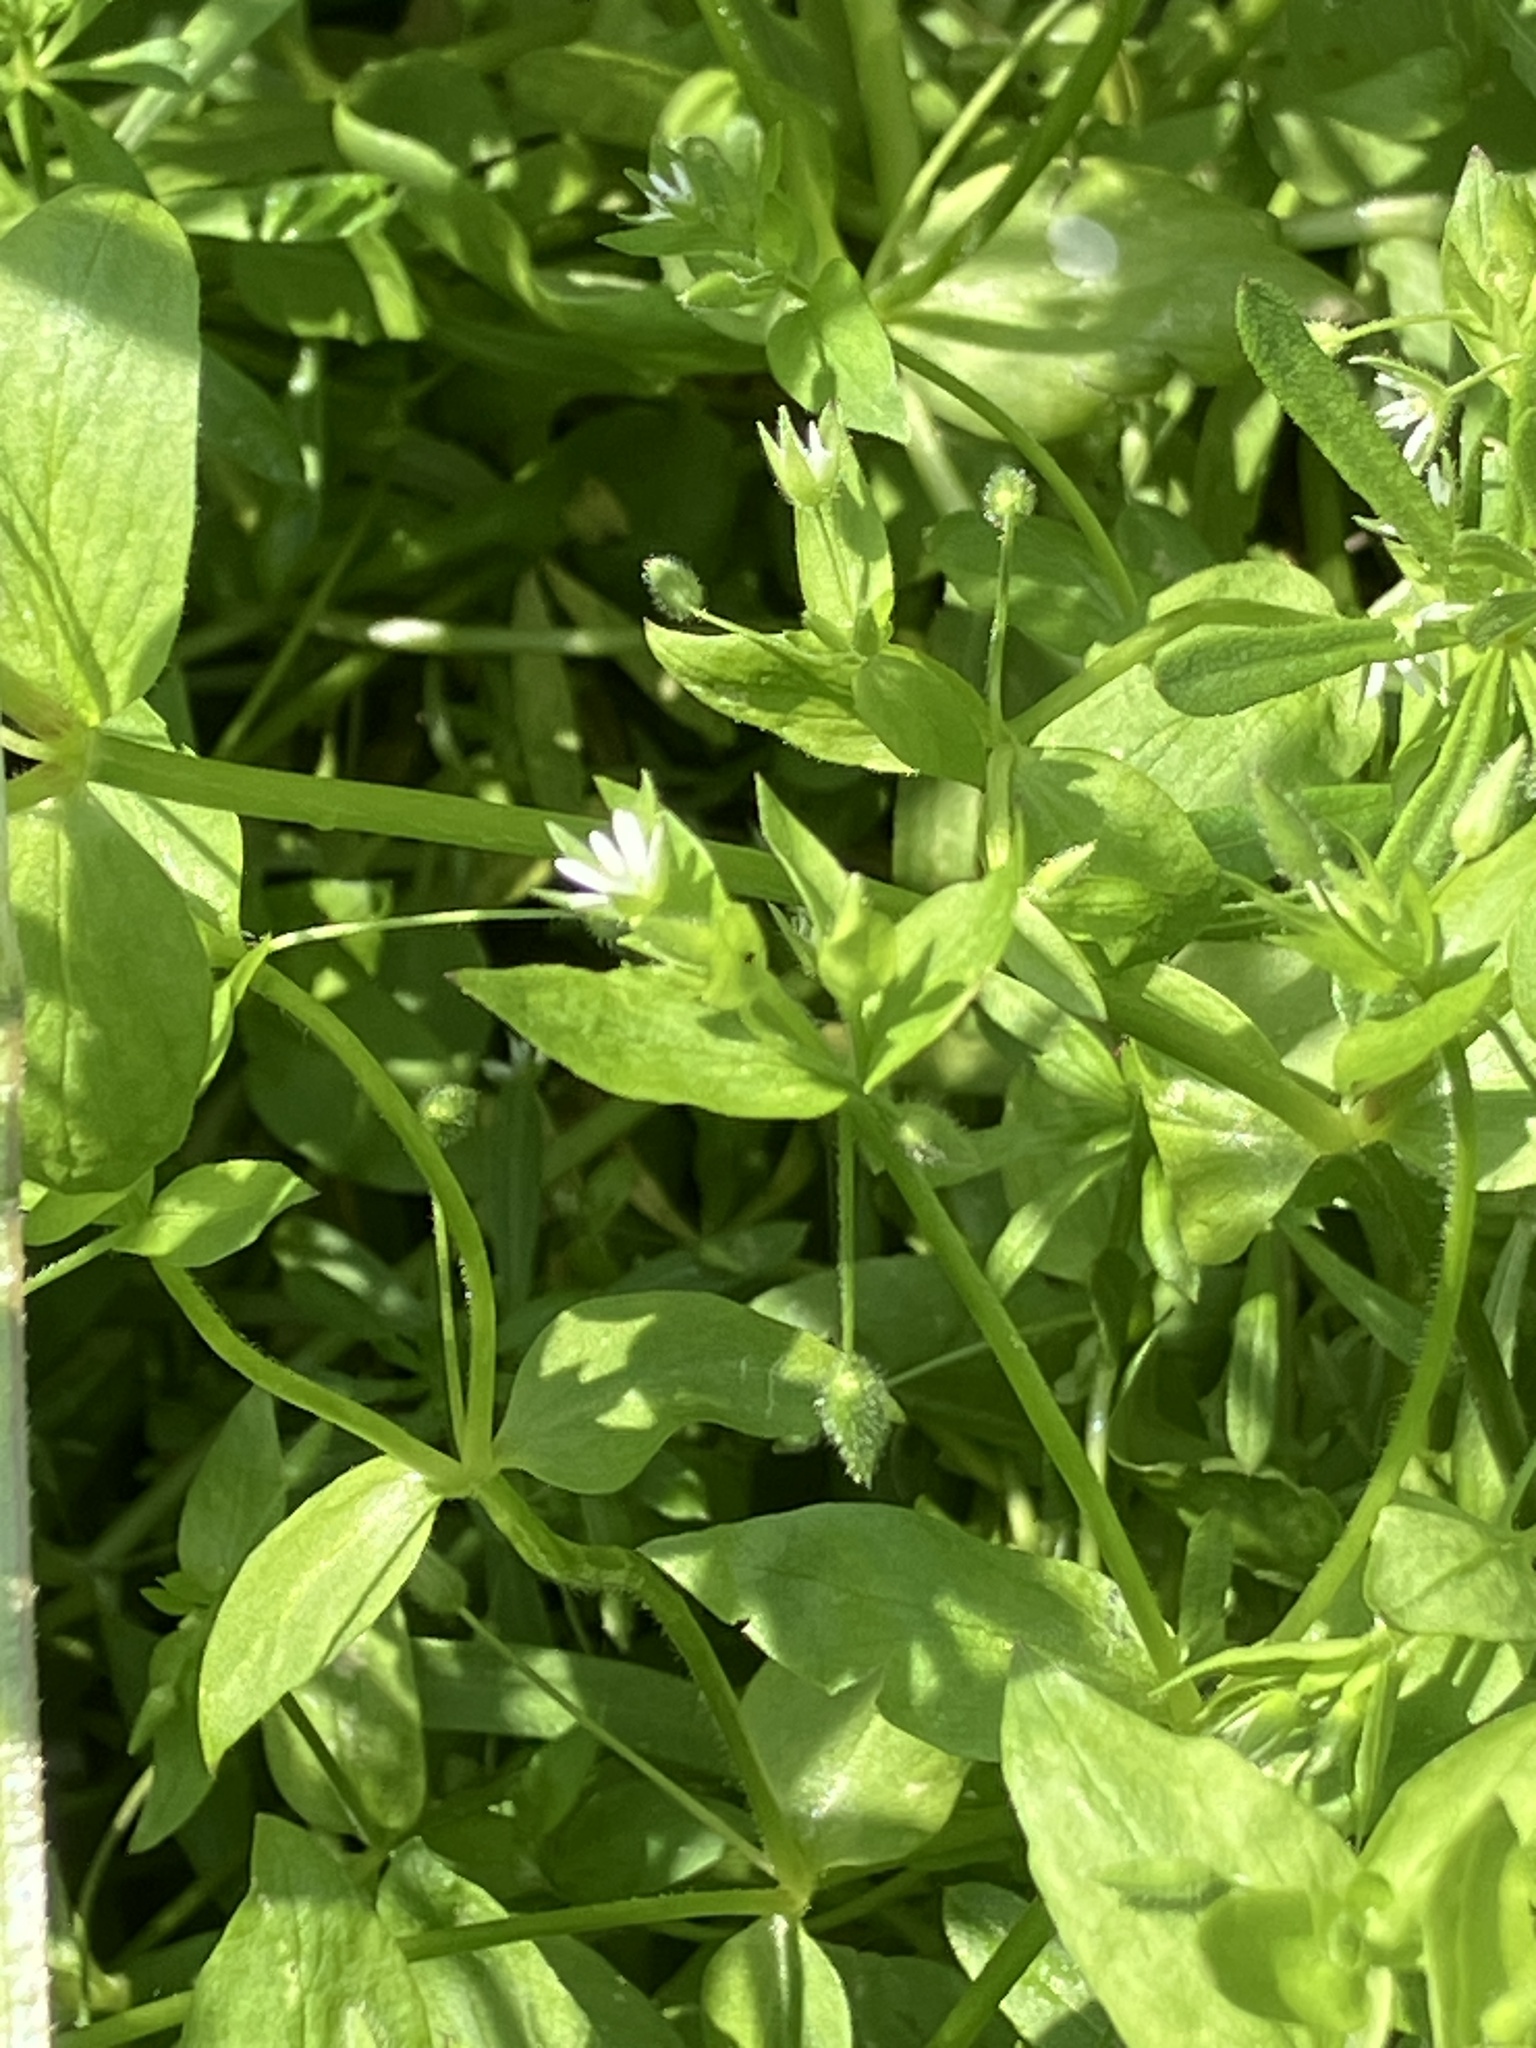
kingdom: Plantae
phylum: Tracheophyta
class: Magnoliopsida
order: Caryophyllales
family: Caryophyllaceae
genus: Stellaria
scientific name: Stellaria media
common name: Common chickweed
